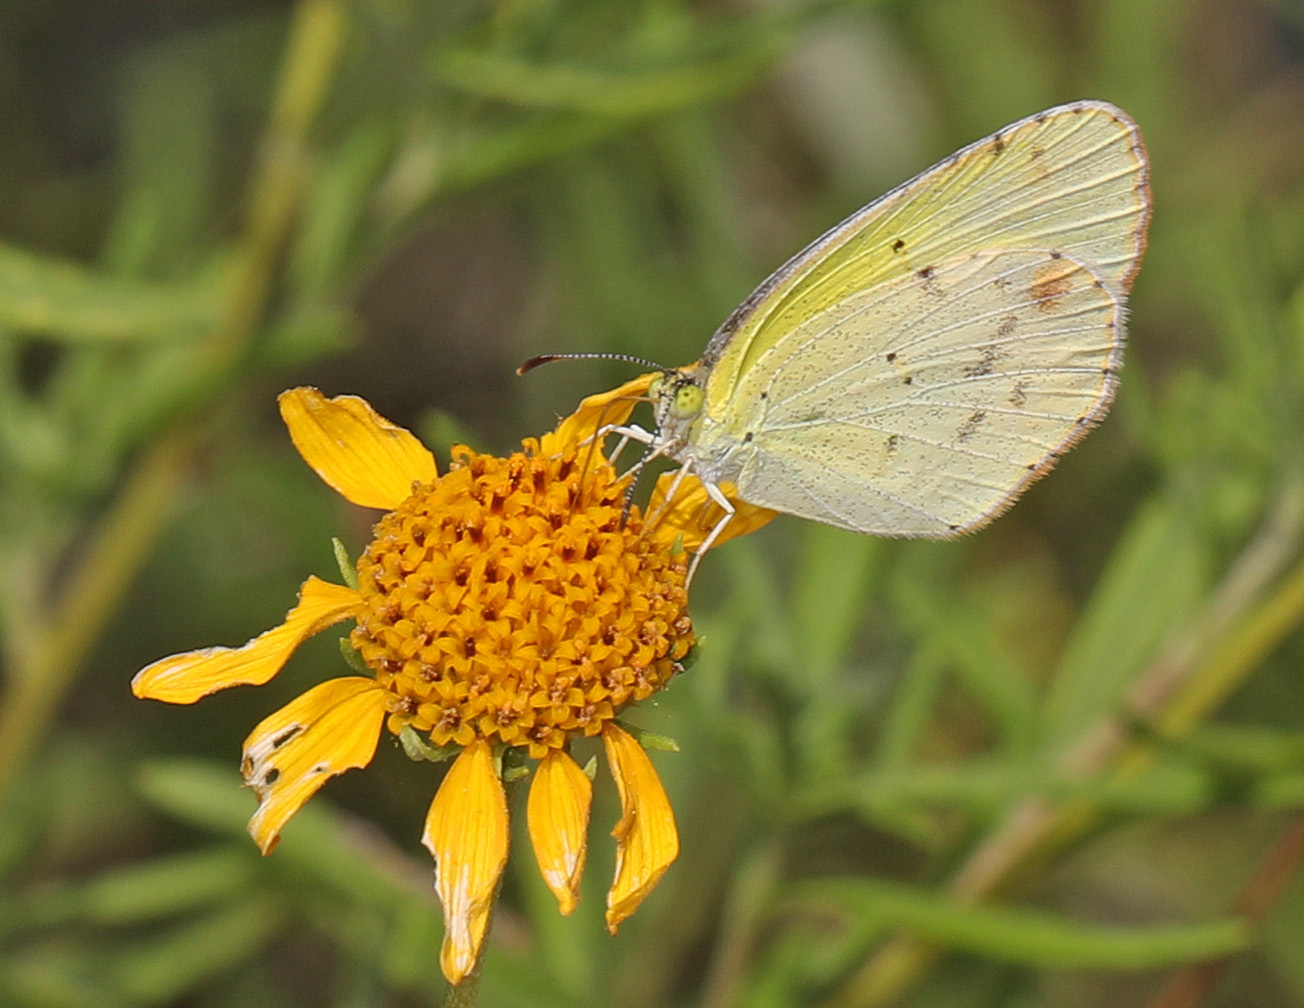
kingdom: Animalia
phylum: Arthropoda
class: Insecta
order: Lepidoptera
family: Pieridae
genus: Pyrisitia
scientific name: Pyrisitia lisa
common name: Little yellow
